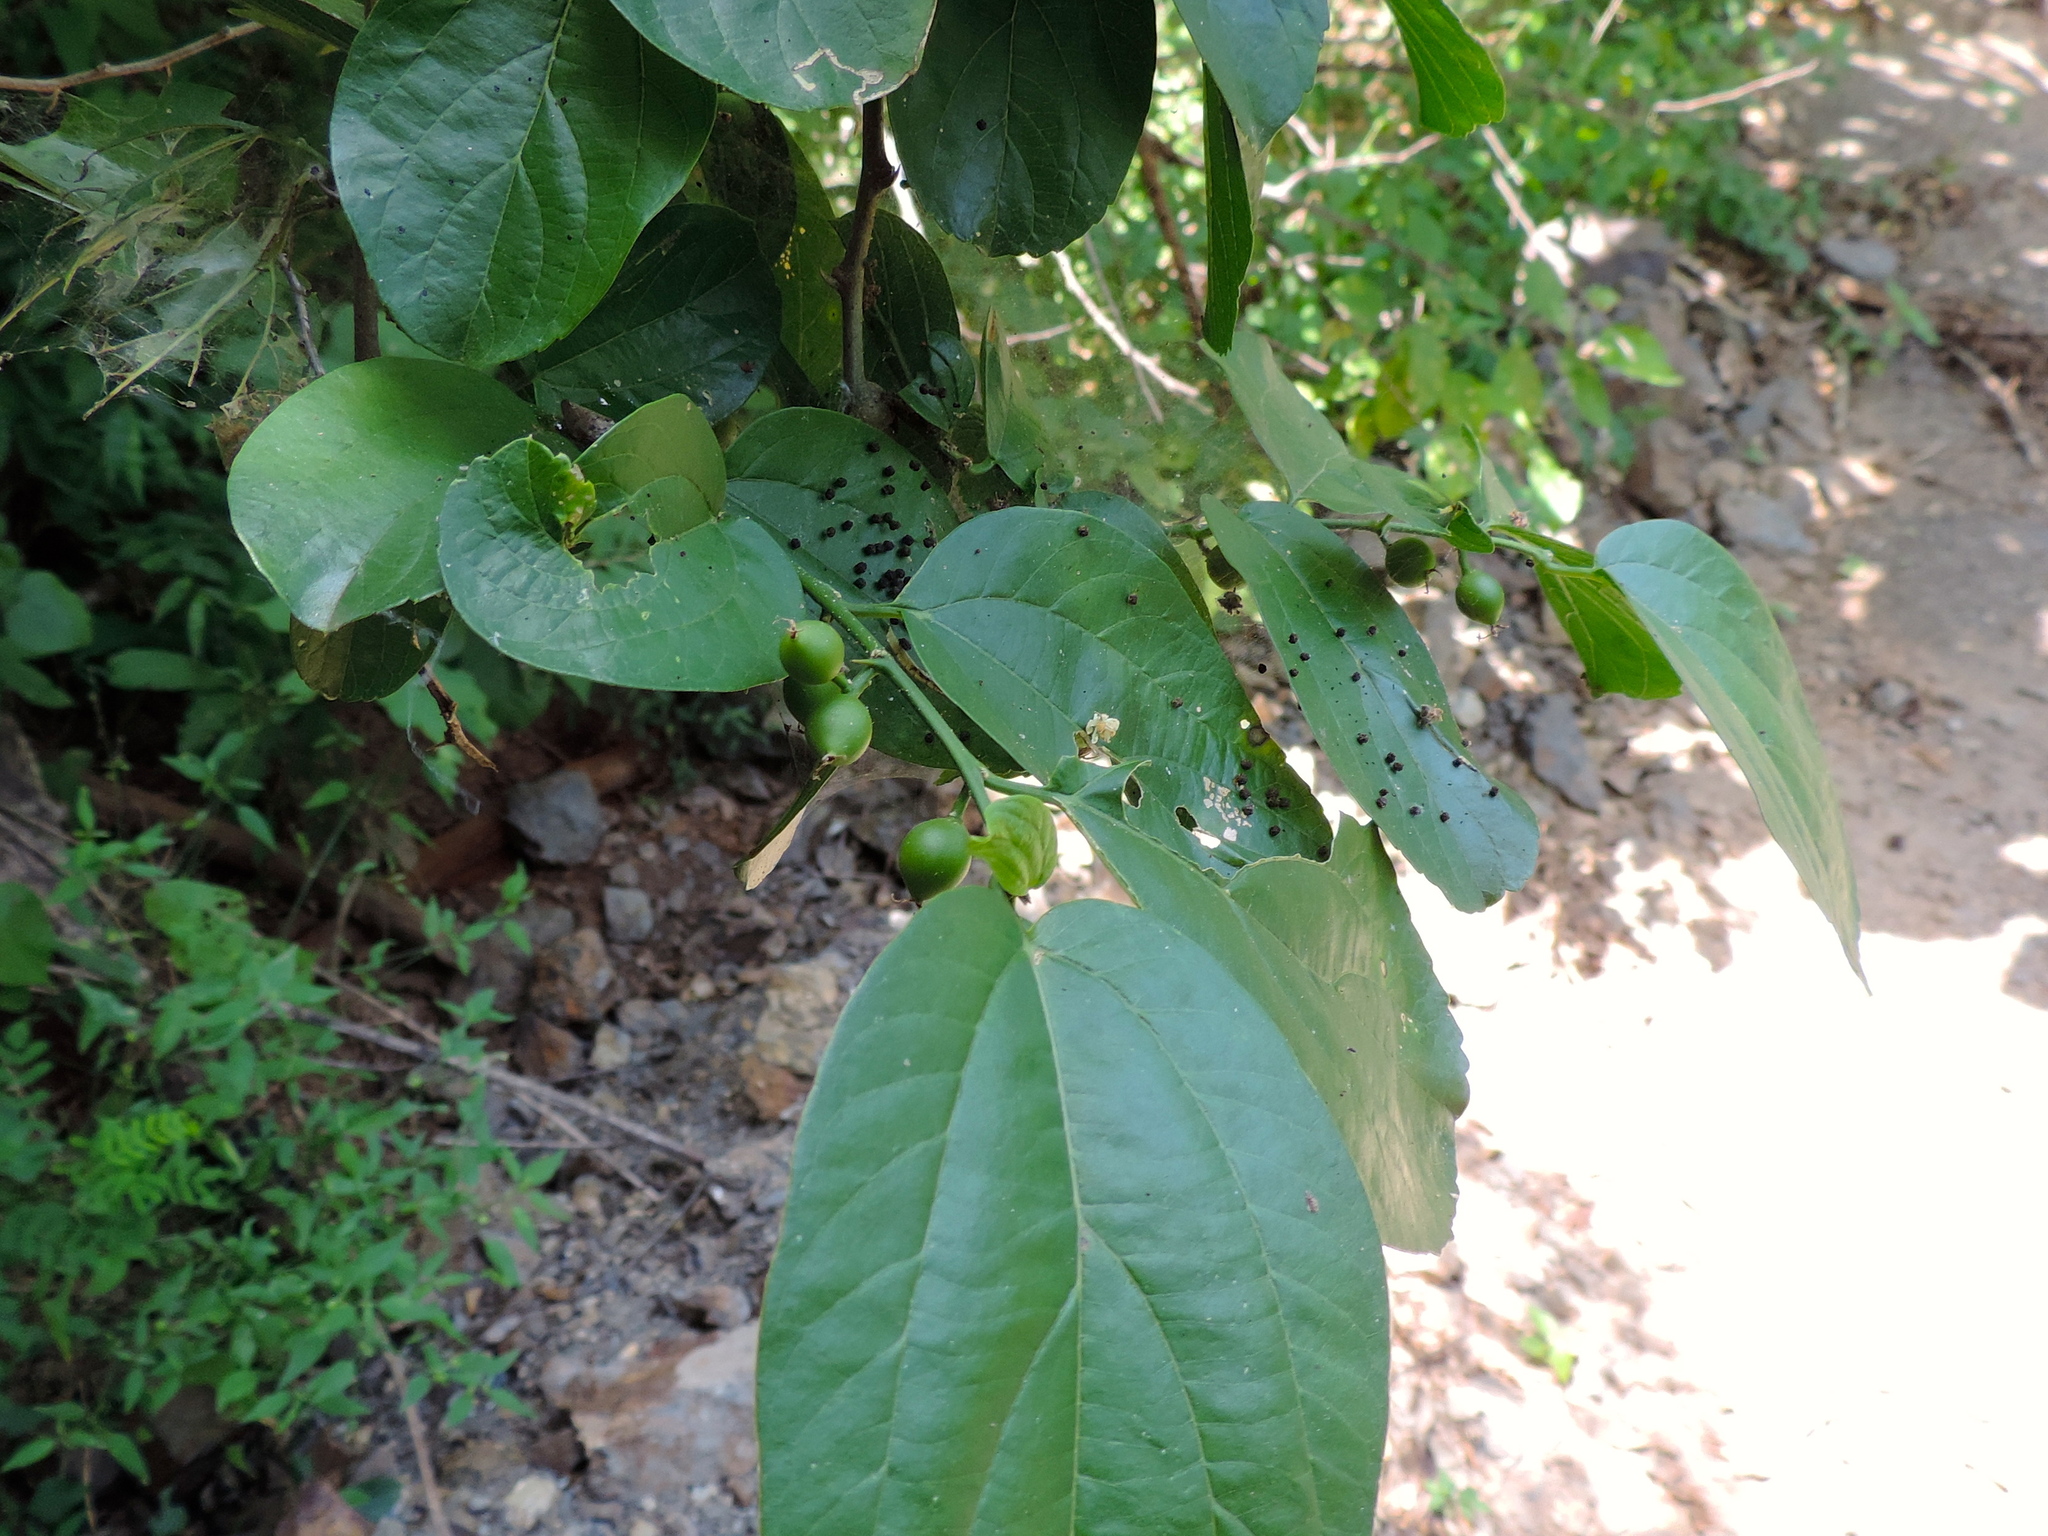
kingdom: Plantae
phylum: Tracheophyta
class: Magnoliopsida
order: Rosales
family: Cannabaceae
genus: Celtis
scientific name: Celtis iguanaea
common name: Iguana hackberry
